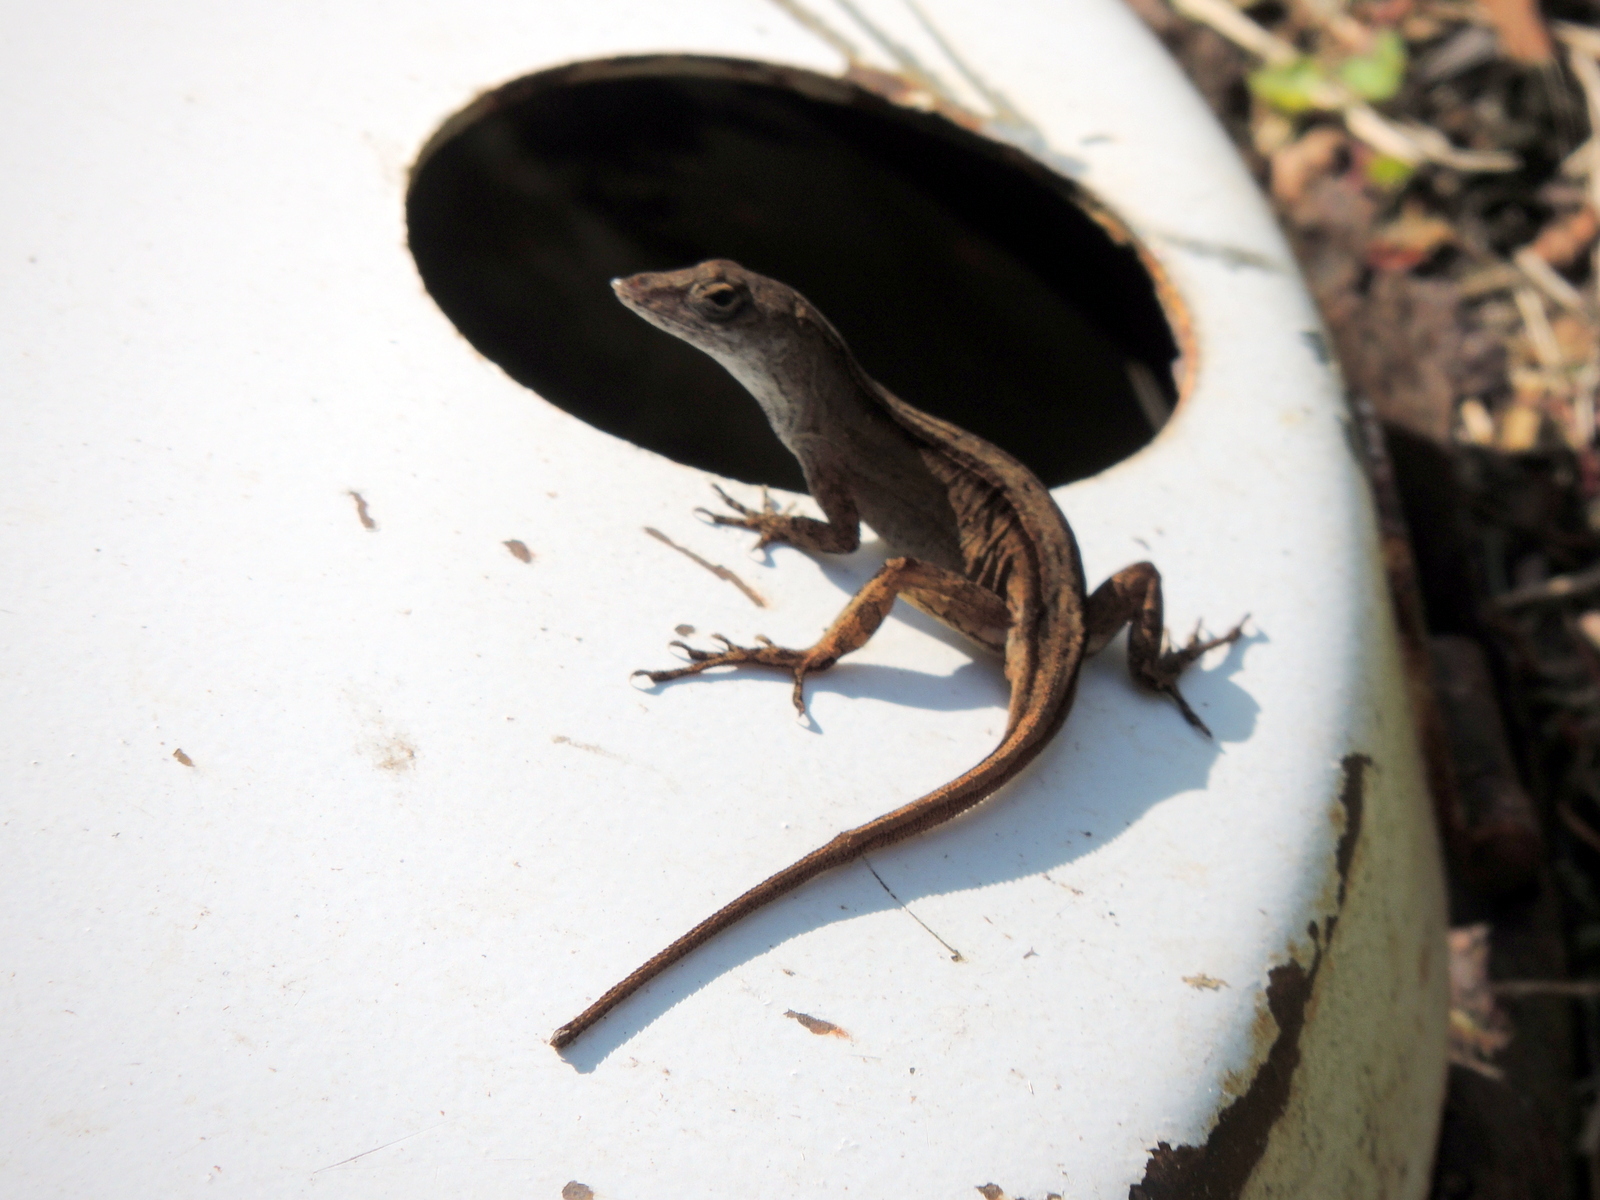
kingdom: Animalia
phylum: Chordata
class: Squamata
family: Dactyloidae
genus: Anolis
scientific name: Anolis sagrei
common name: Brown anole
